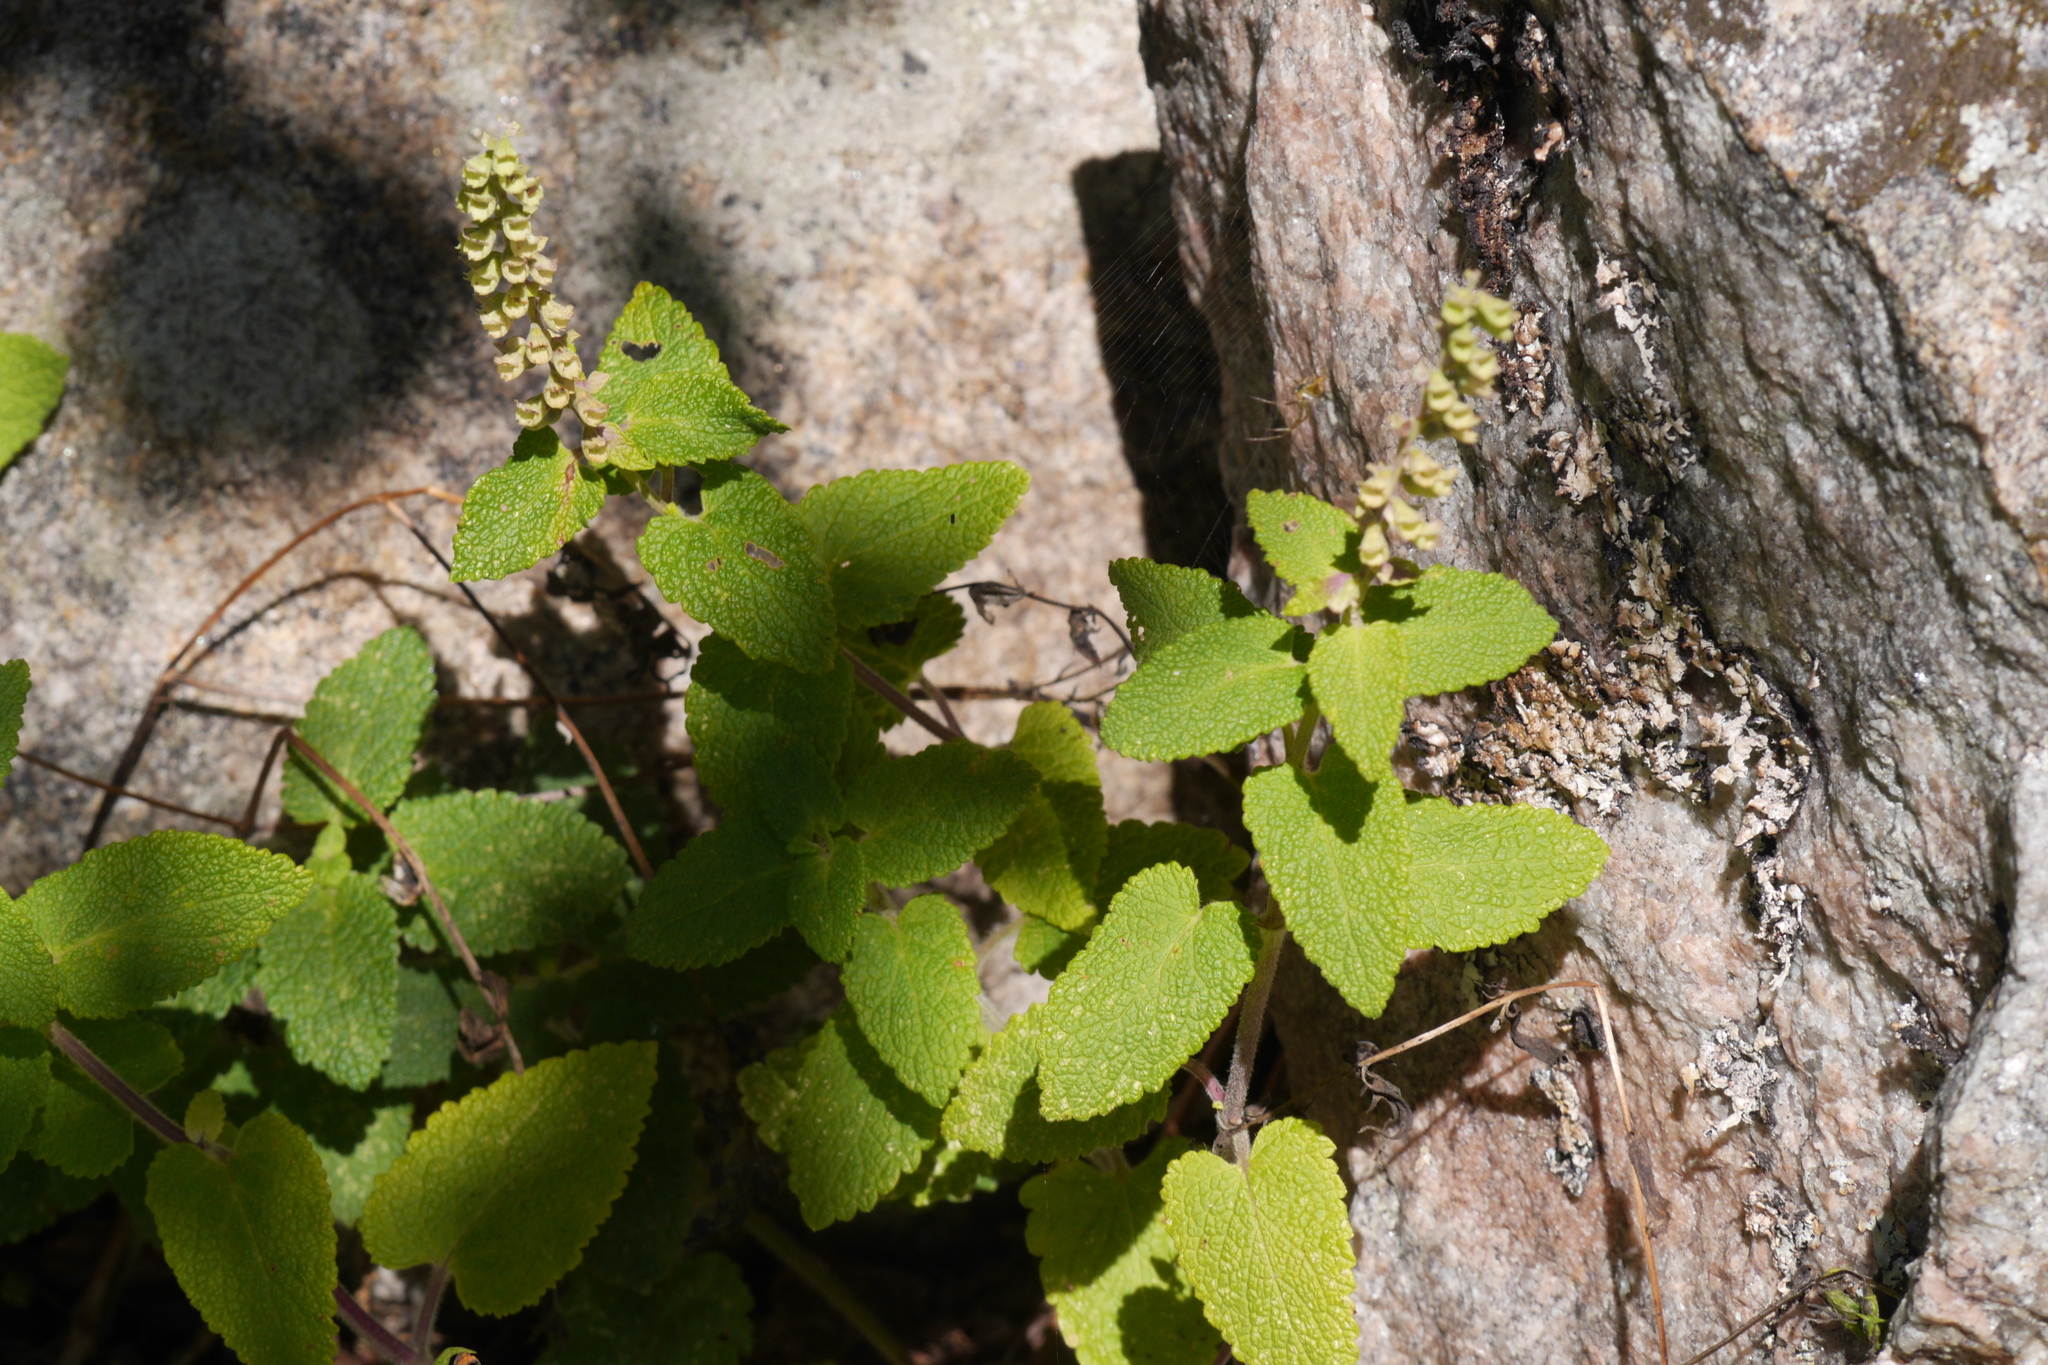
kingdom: Plantae
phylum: Tracheophyta
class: Magnoliopsida
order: Lamiales
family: Lamiaceae
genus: Teucrium
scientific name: Teucrium scorodonia
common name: Woodland germander
